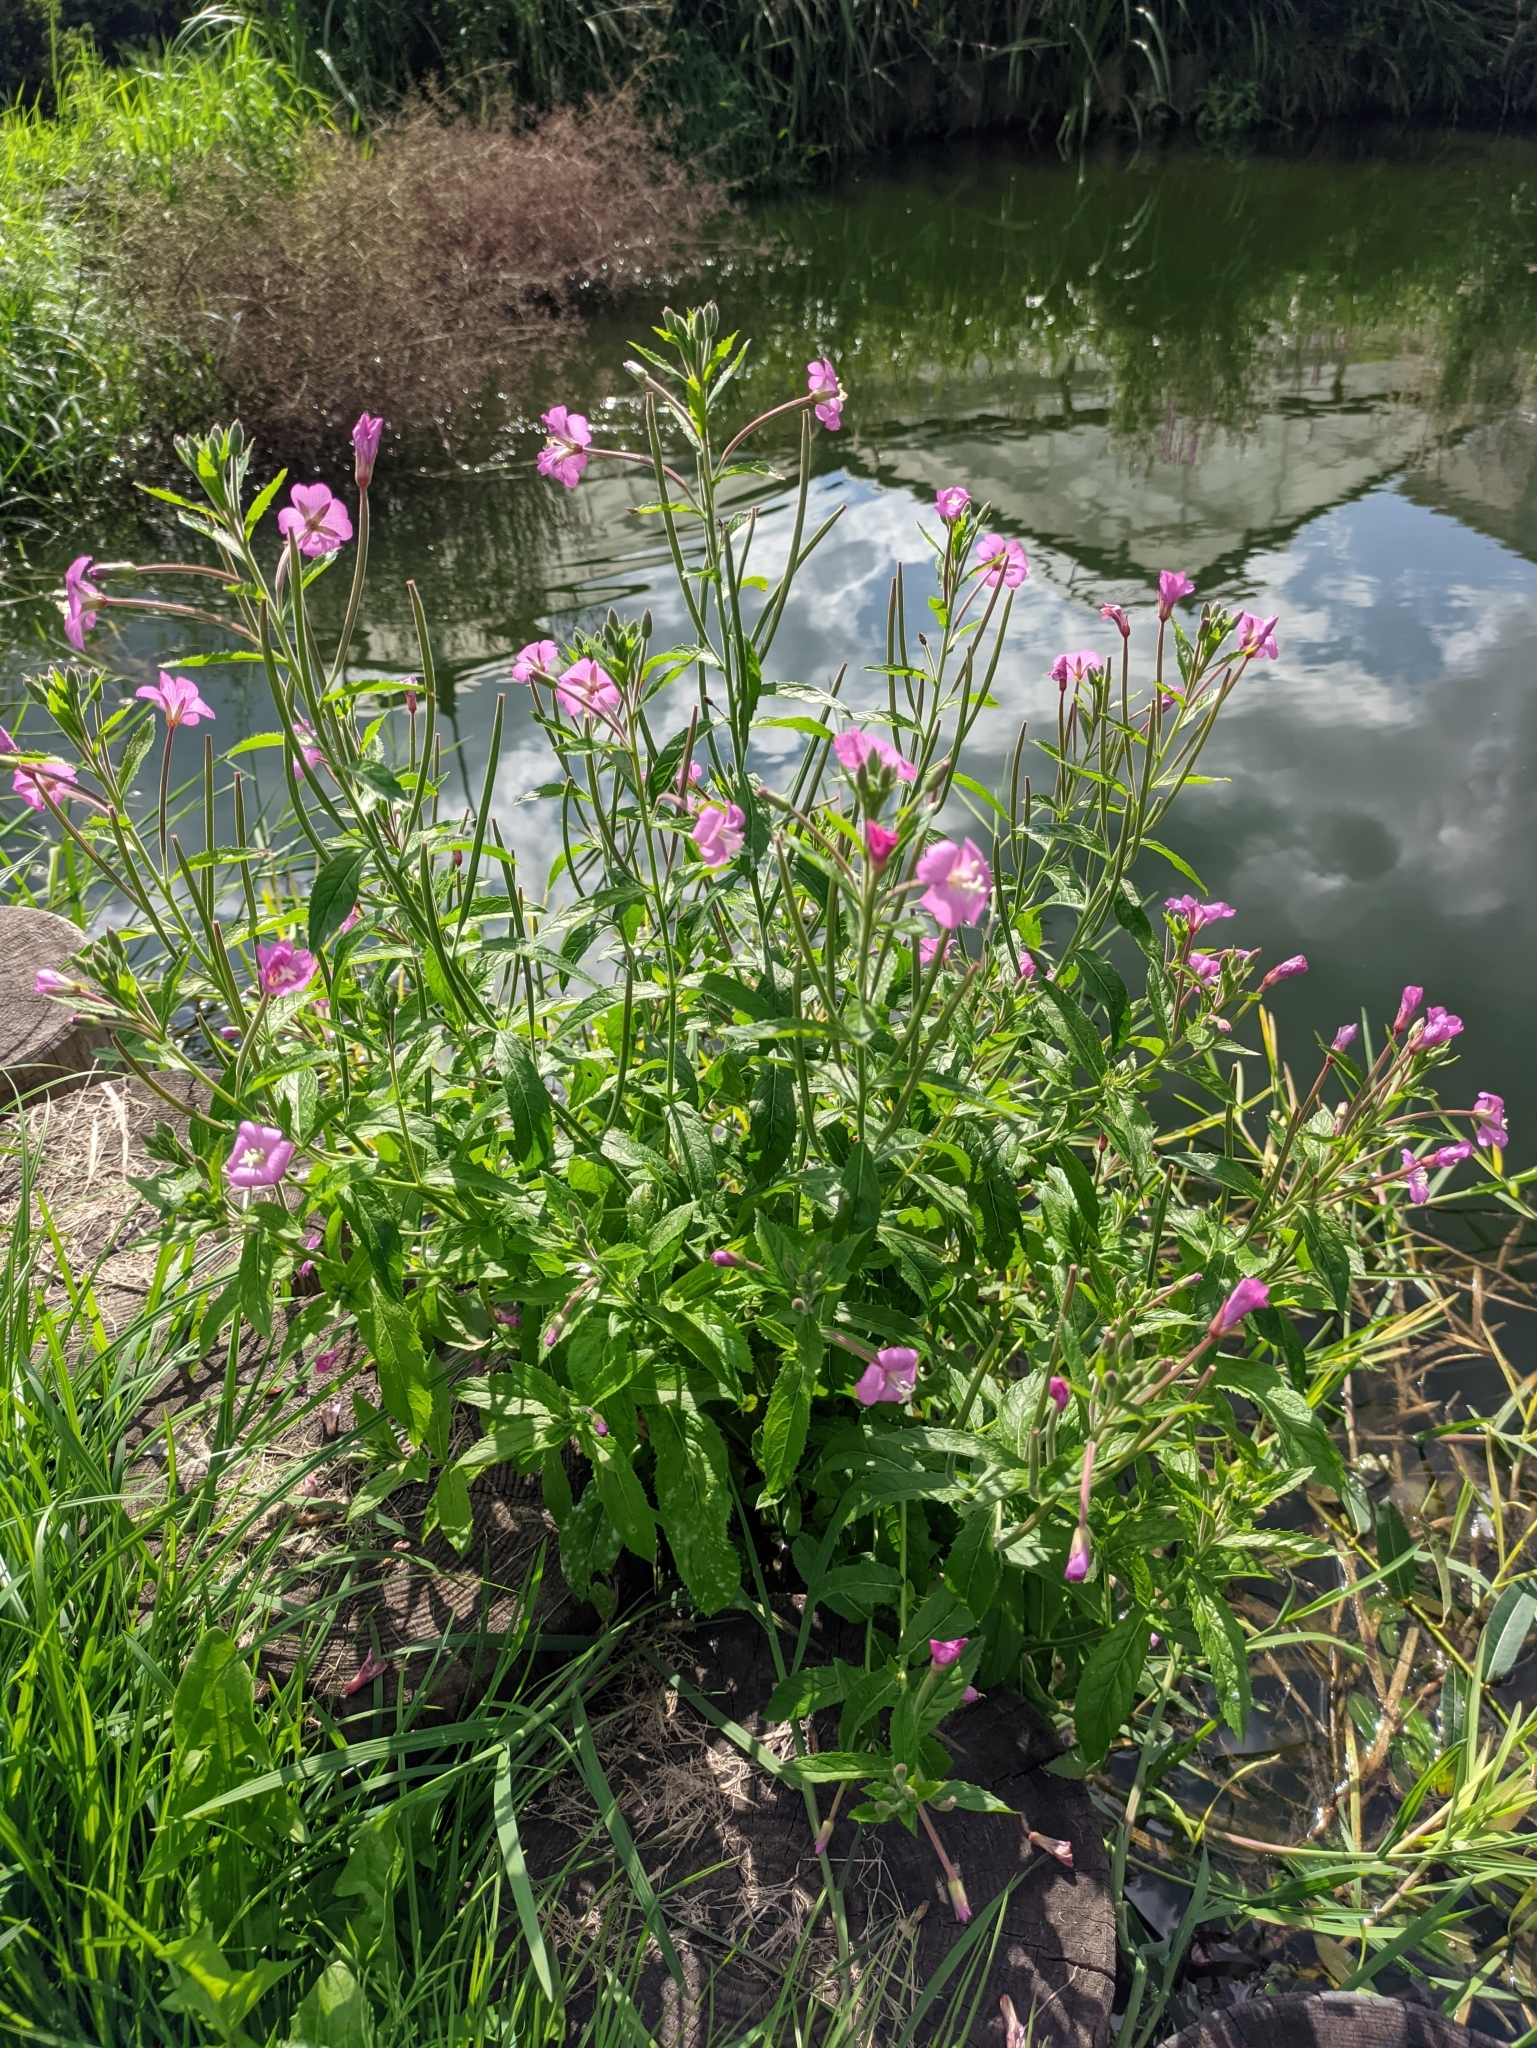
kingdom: Plantae
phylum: Tracheophyta
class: Magnoliopsida
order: Myrtales
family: Onagraceae
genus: Epilobium
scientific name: Epilobium hirsutum
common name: Great willowherb
